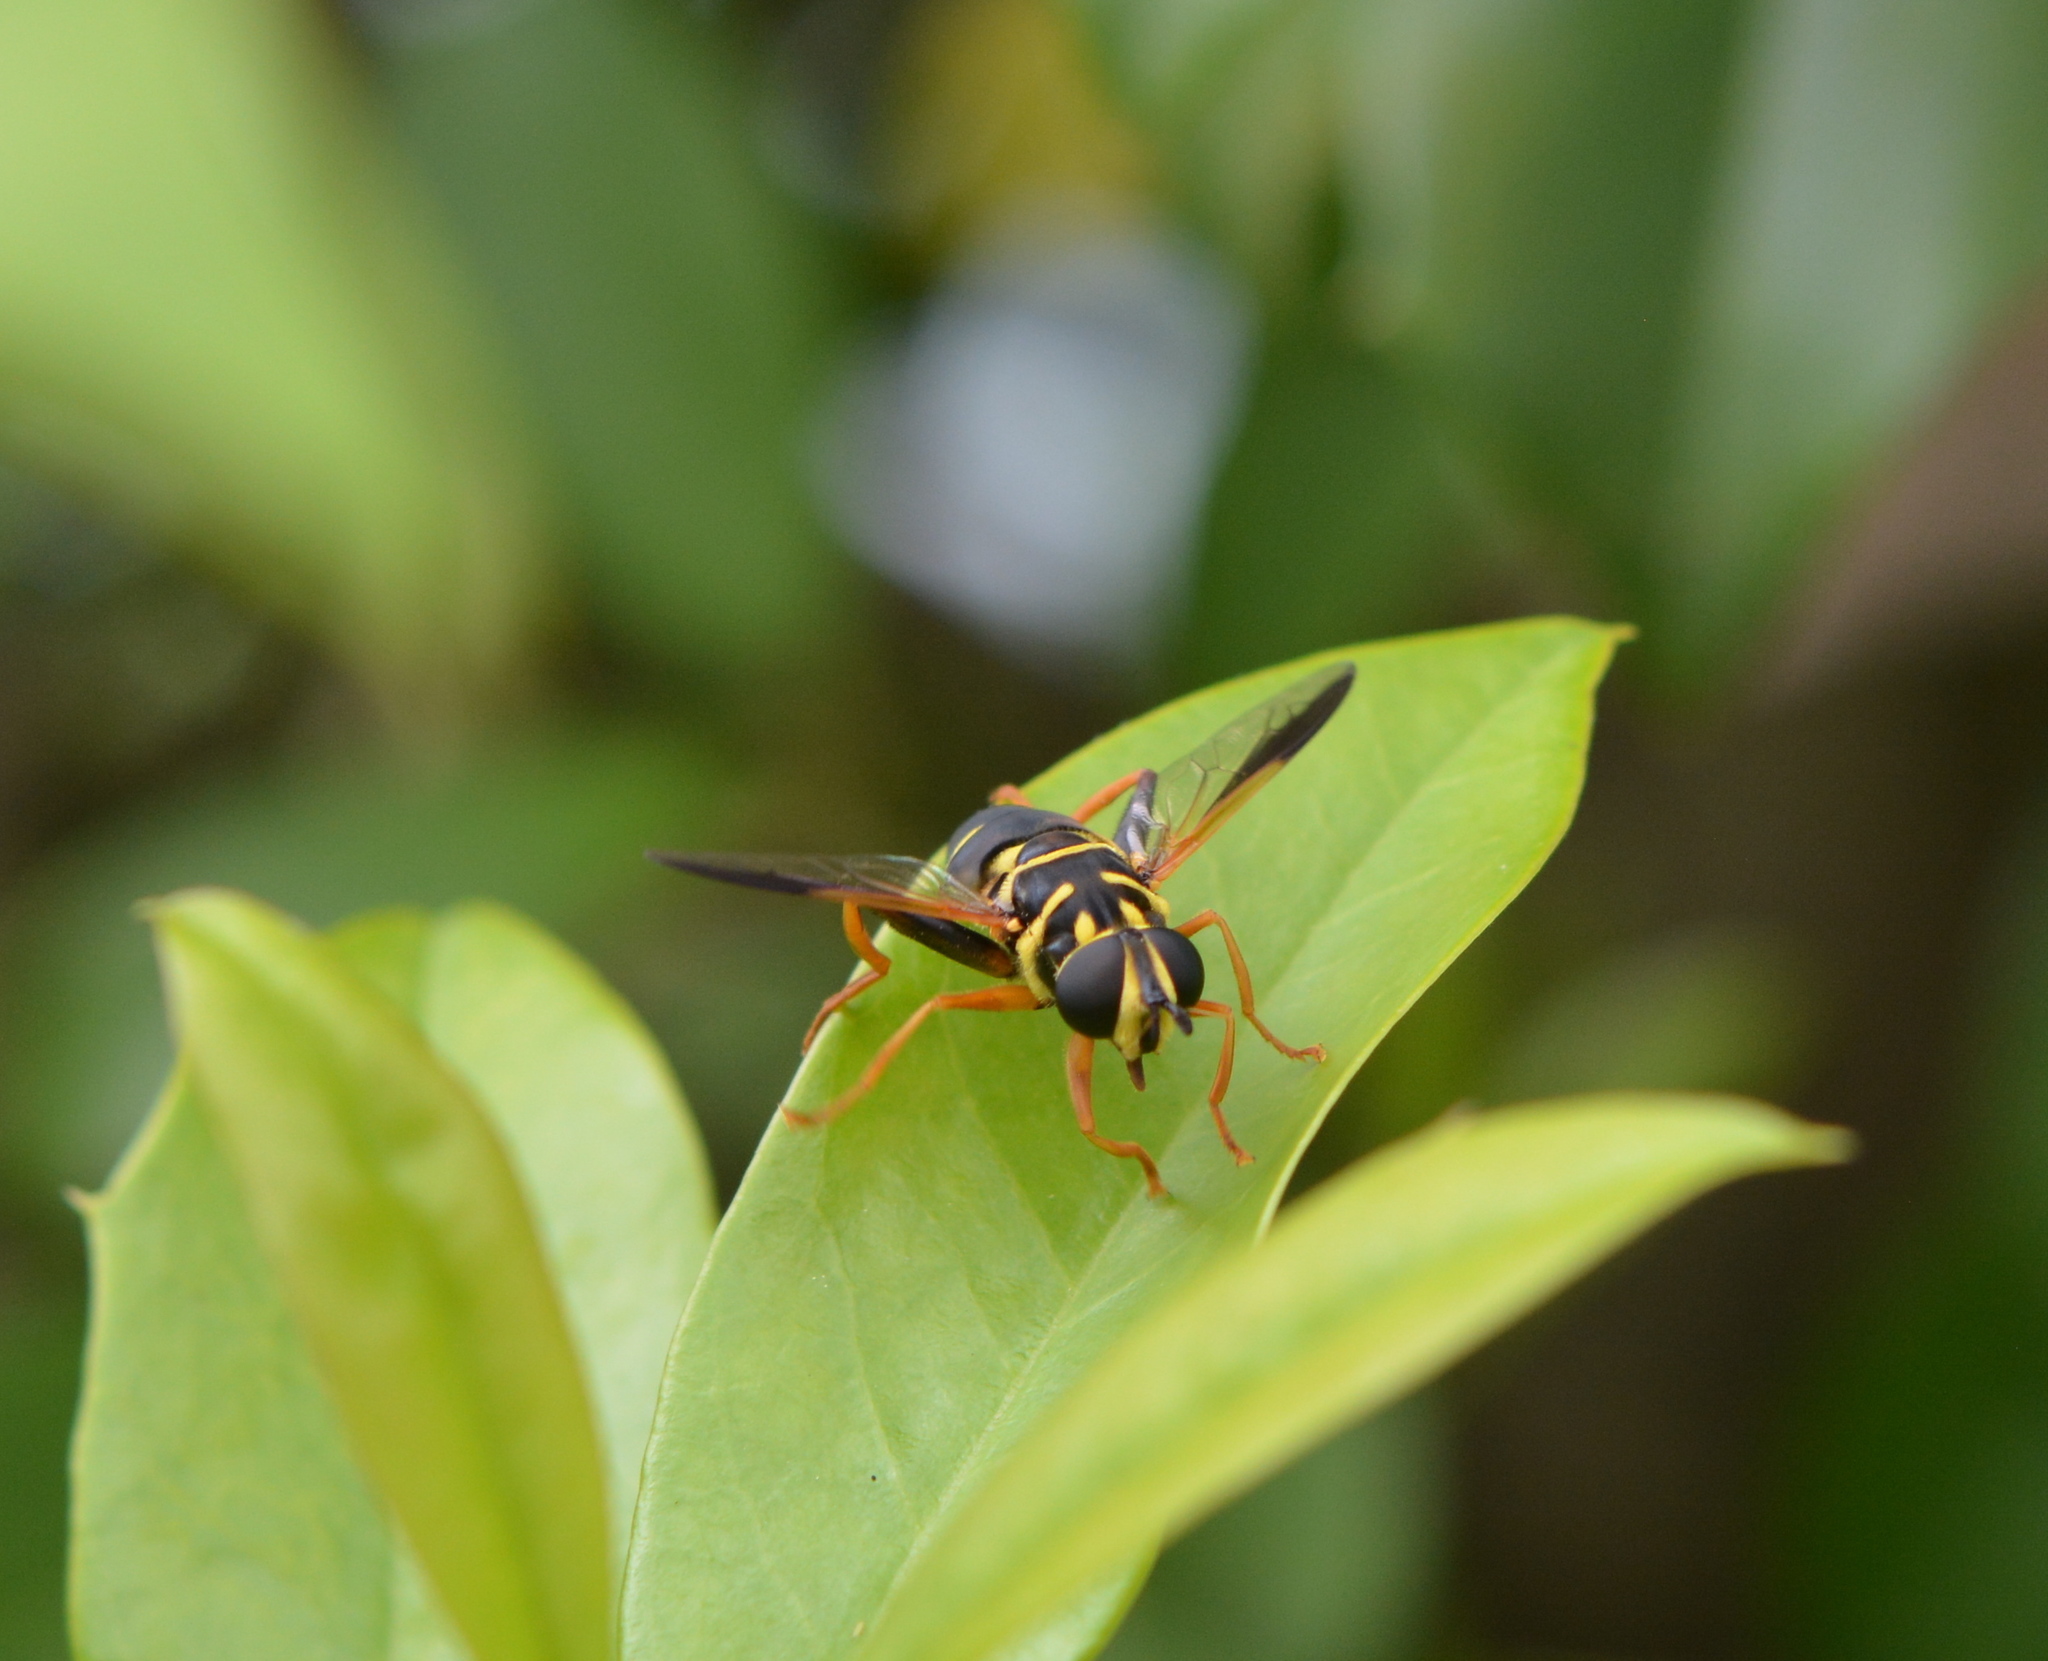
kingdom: Animalia
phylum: Arthropoda
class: Insecta
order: Diptera
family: Syrphidae
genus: Meromacrus
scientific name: Meromacrus acutus
